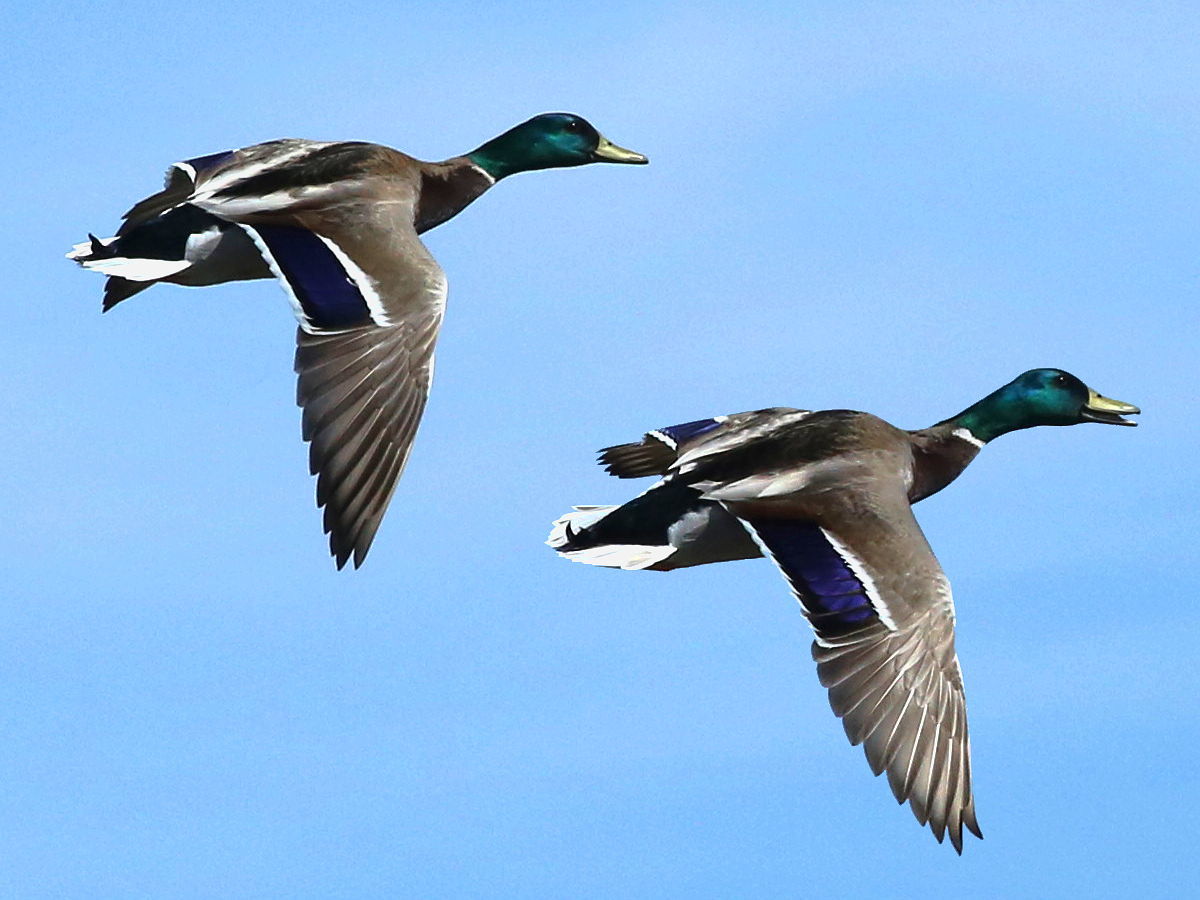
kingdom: Animalia
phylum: Chordata
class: Aves
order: Anseriformes
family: Anatidae
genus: Anas
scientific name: Anas platyrhynchos
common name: Mallard
